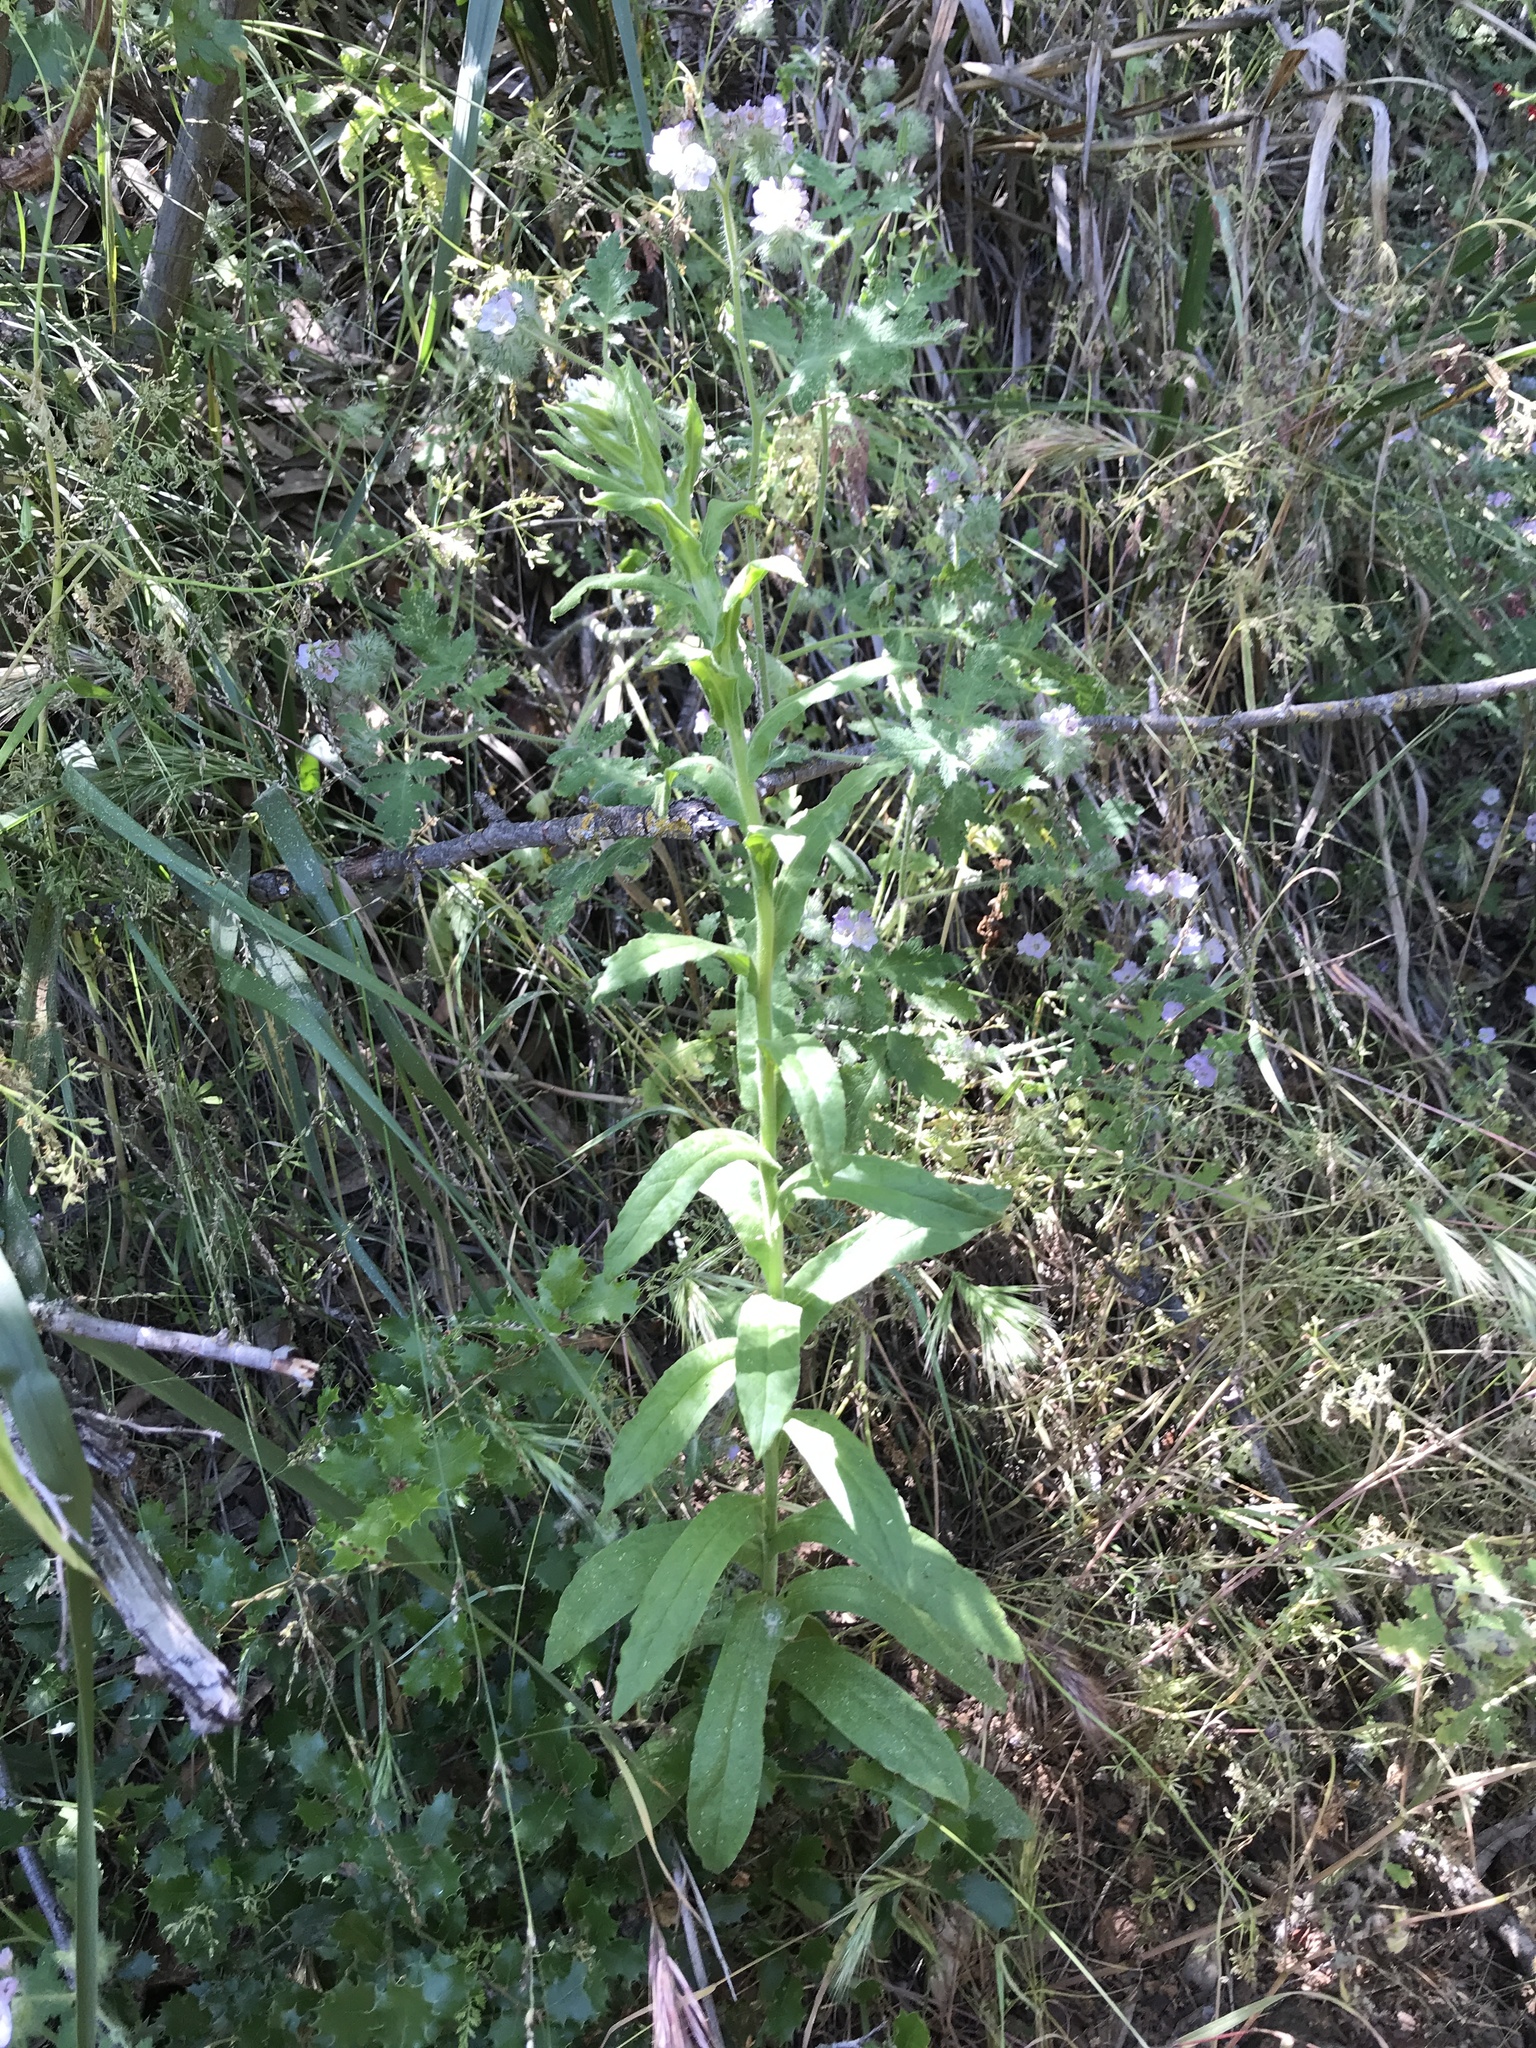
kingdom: Plantae
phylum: Tracheophyta
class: Magnoliopsida
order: Asterales
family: Asteraceae
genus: Pseudognaphalium
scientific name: Pseudognaphalium californicum
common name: California rabbit-tobacco
